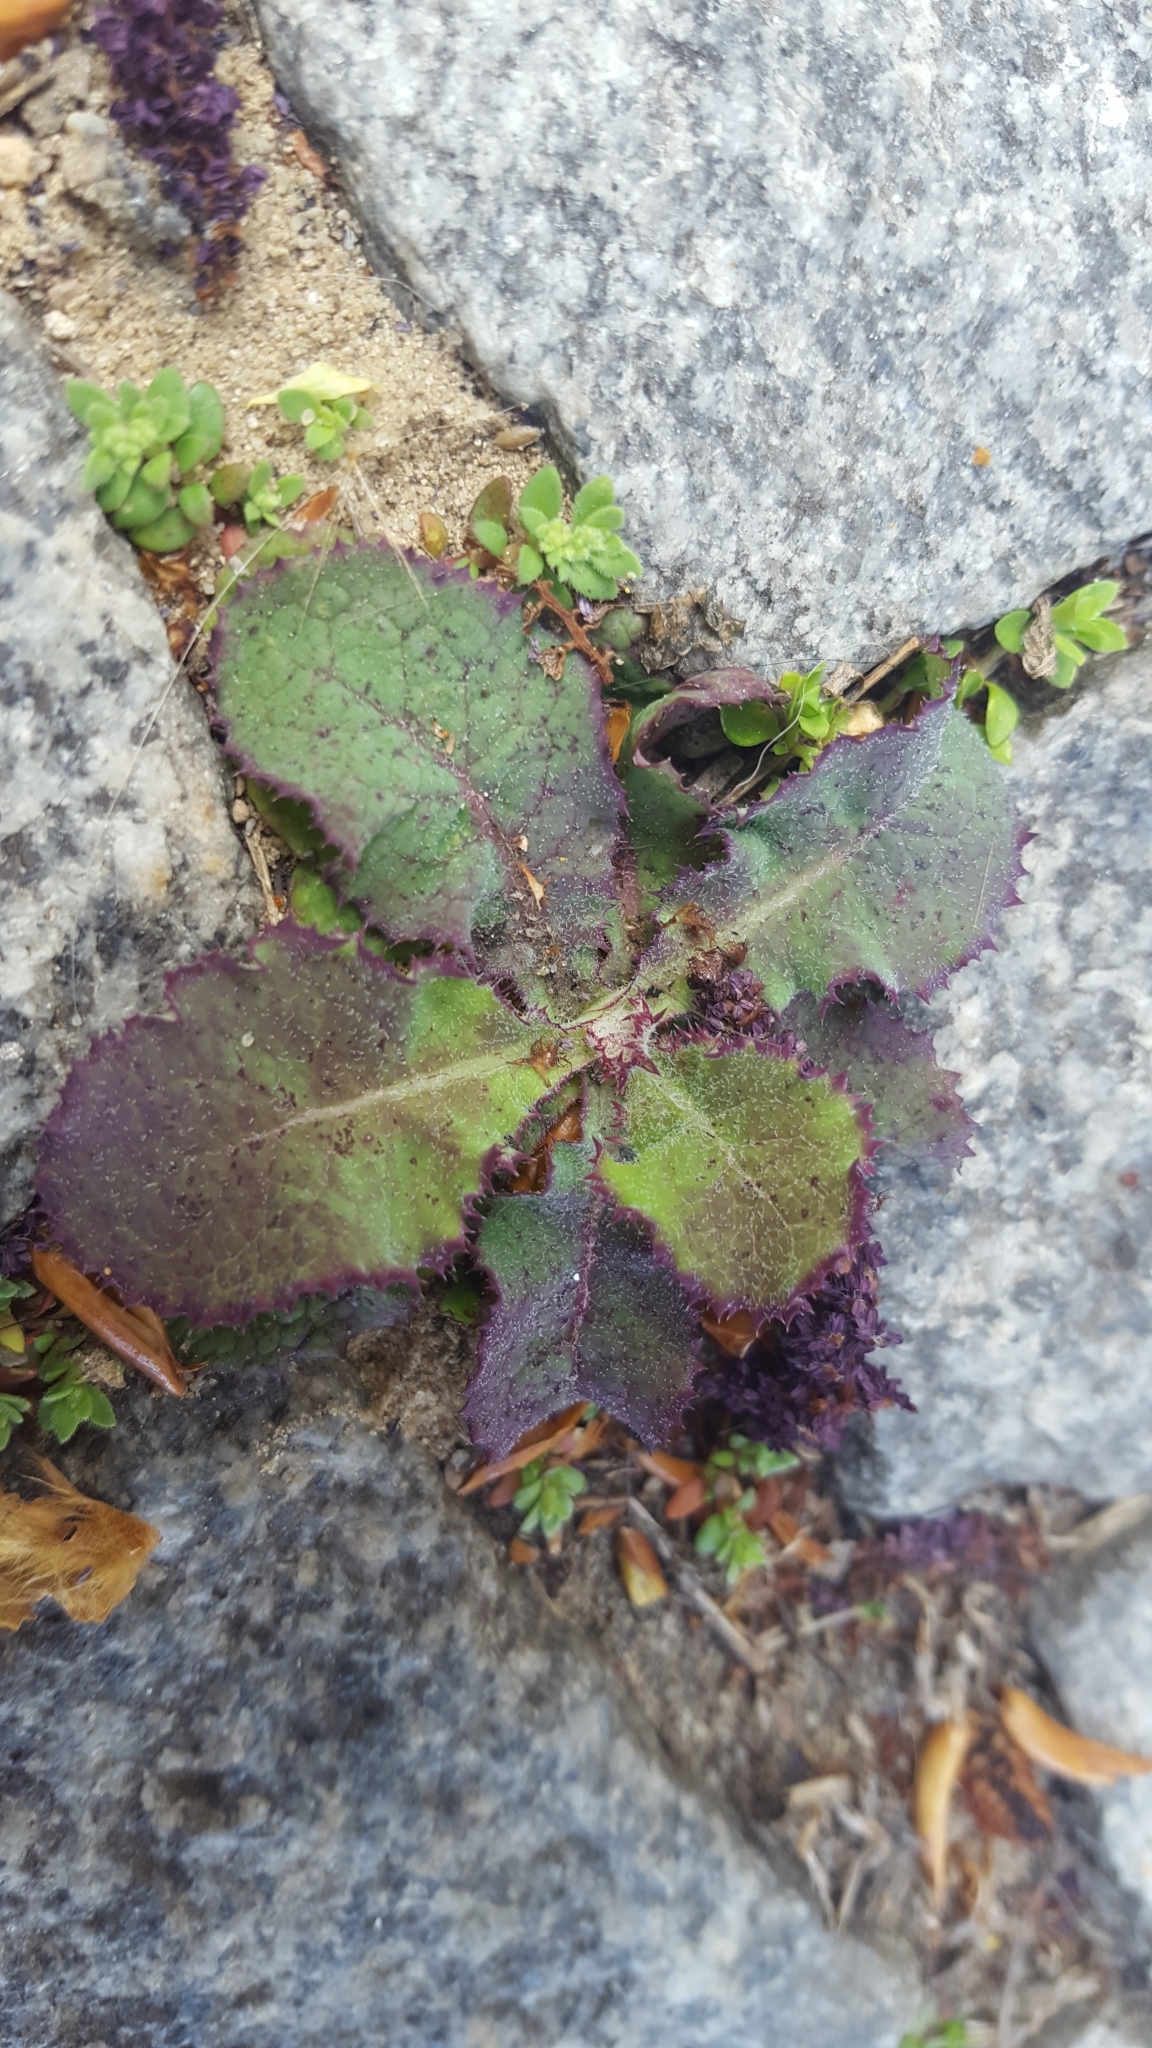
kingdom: Plantae
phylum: Tracheophyta
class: Magnoliopsida
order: Asterales
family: Asteraceae
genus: Sonchus
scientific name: Sonchus oleraceus
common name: Common sowthistle
